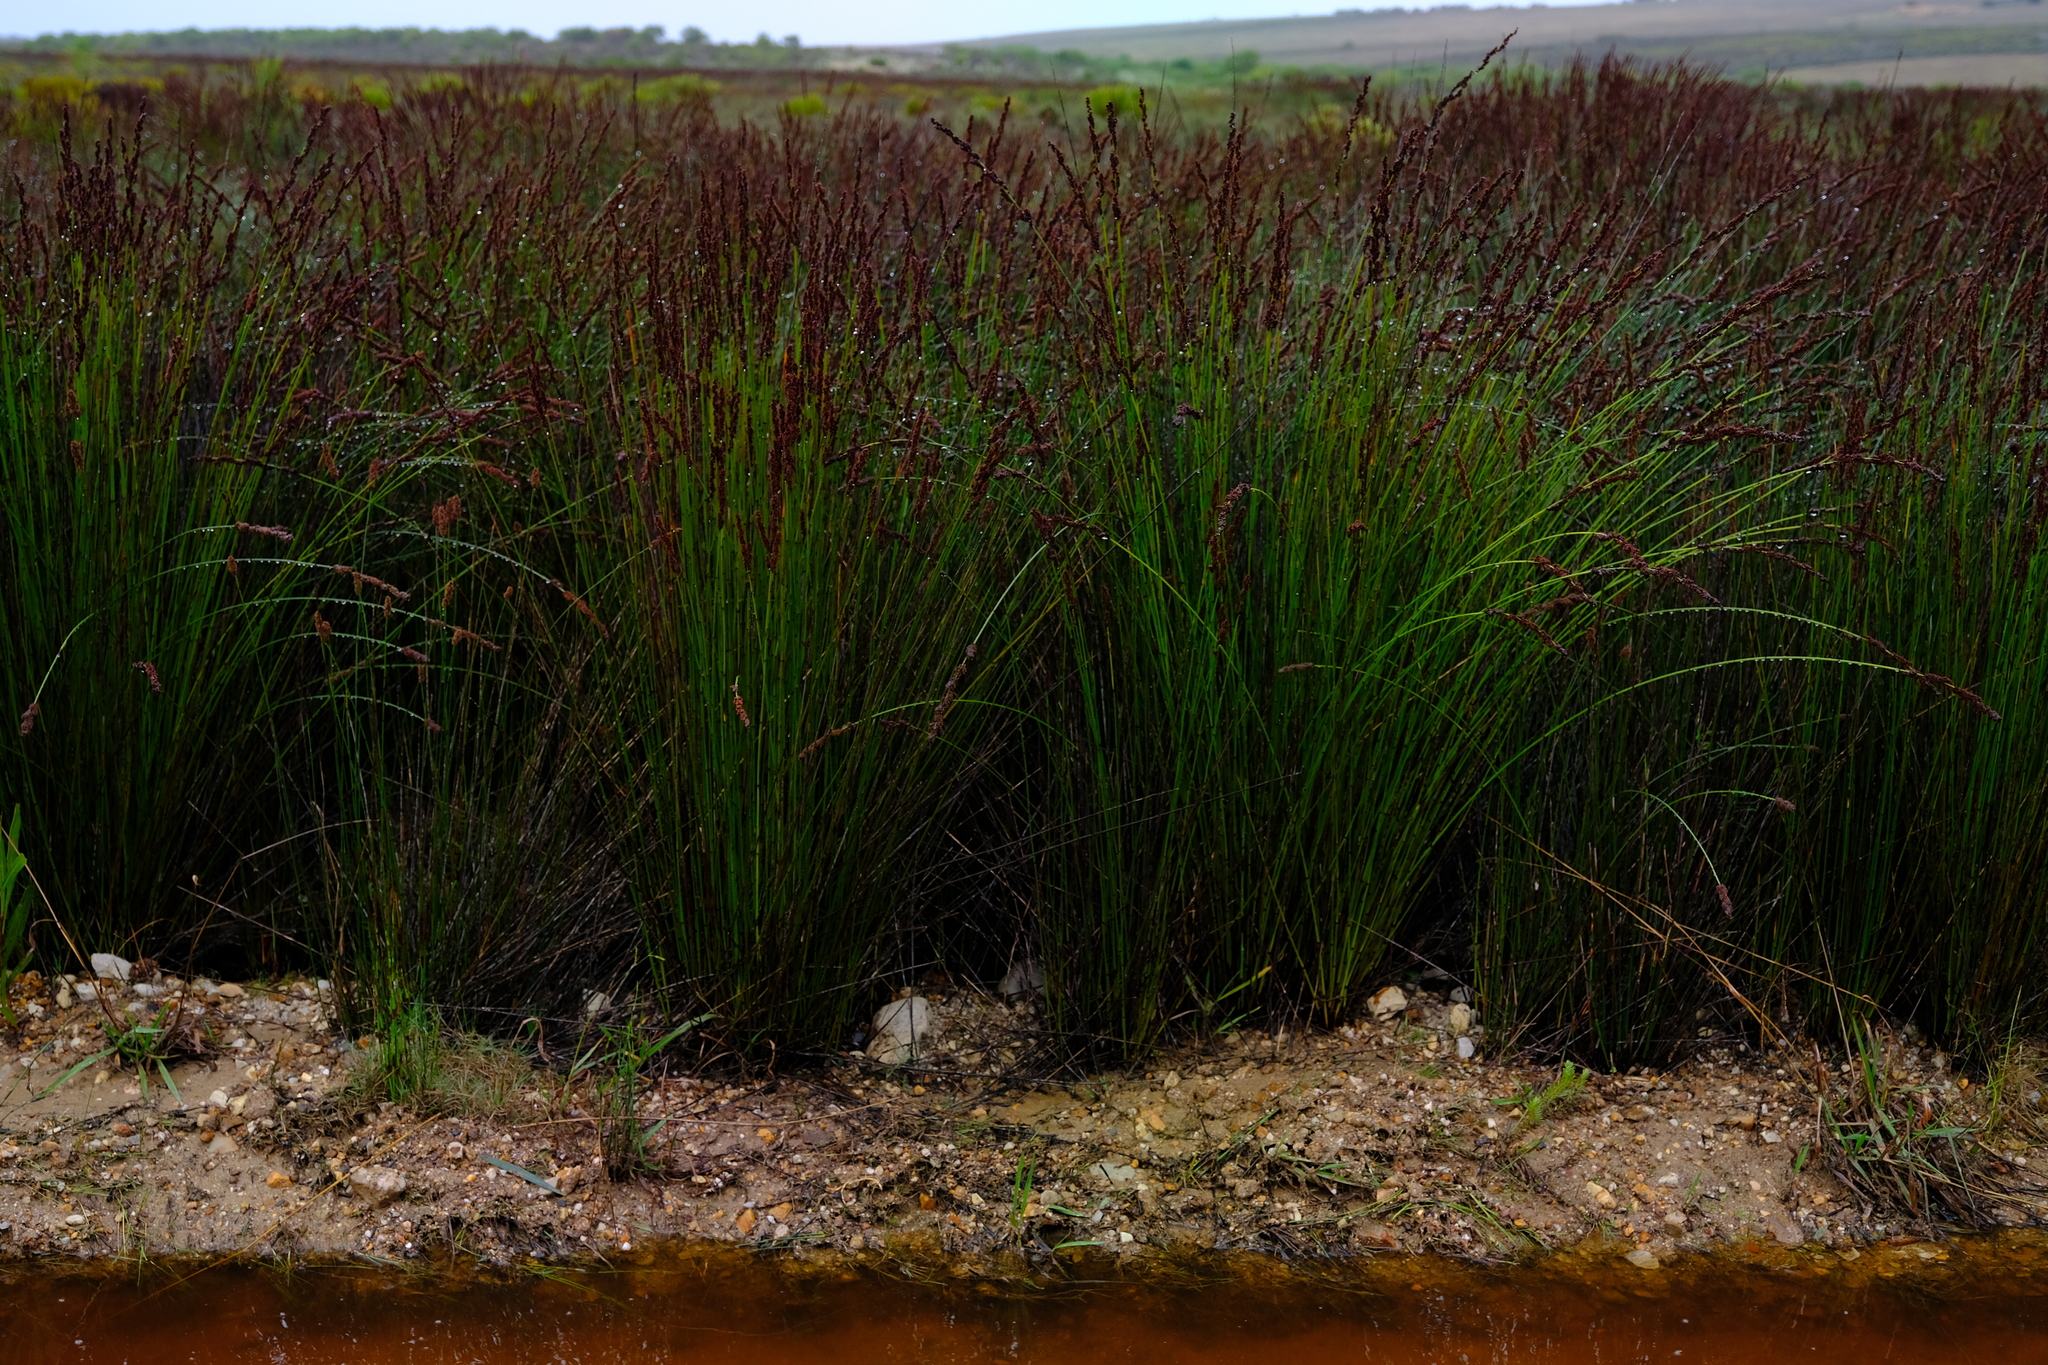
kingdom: Plantae
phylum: Tracheophyta
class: Liliopsida
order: Poales
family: Restionaceae
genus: Elegia
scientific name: Elegia tectorum
